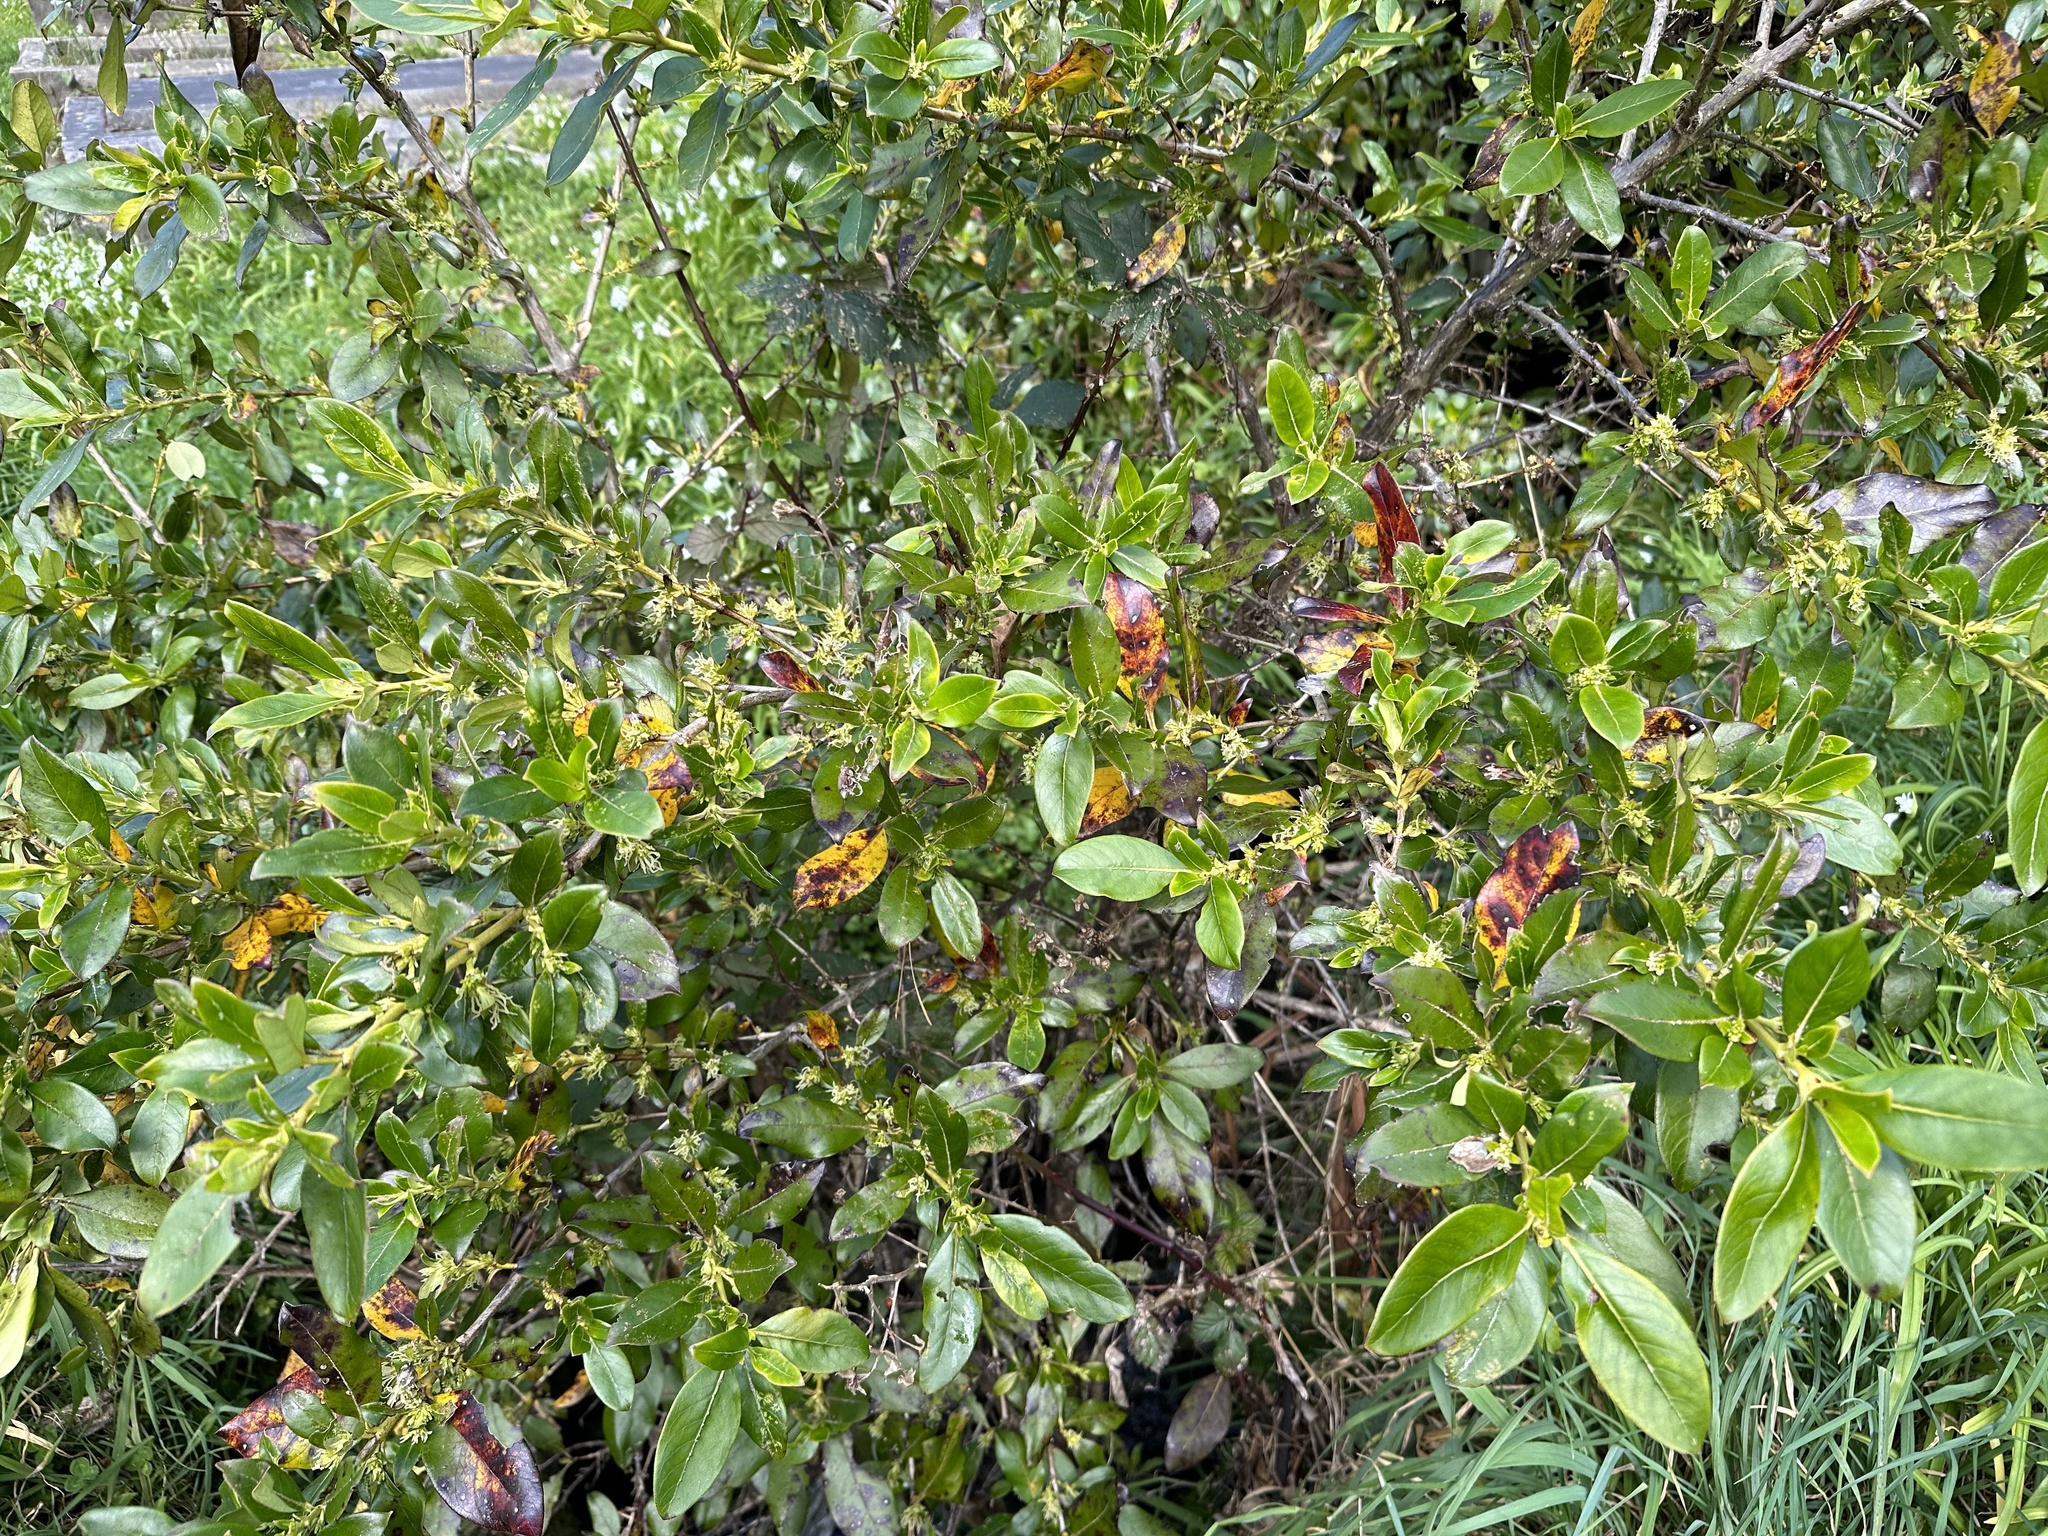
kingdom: Plantae
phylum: Tracheophyta
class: Magnoliopsida
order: Gentianales
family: Rubiaceae
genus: Coprosma
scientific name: Coprosma robusta
